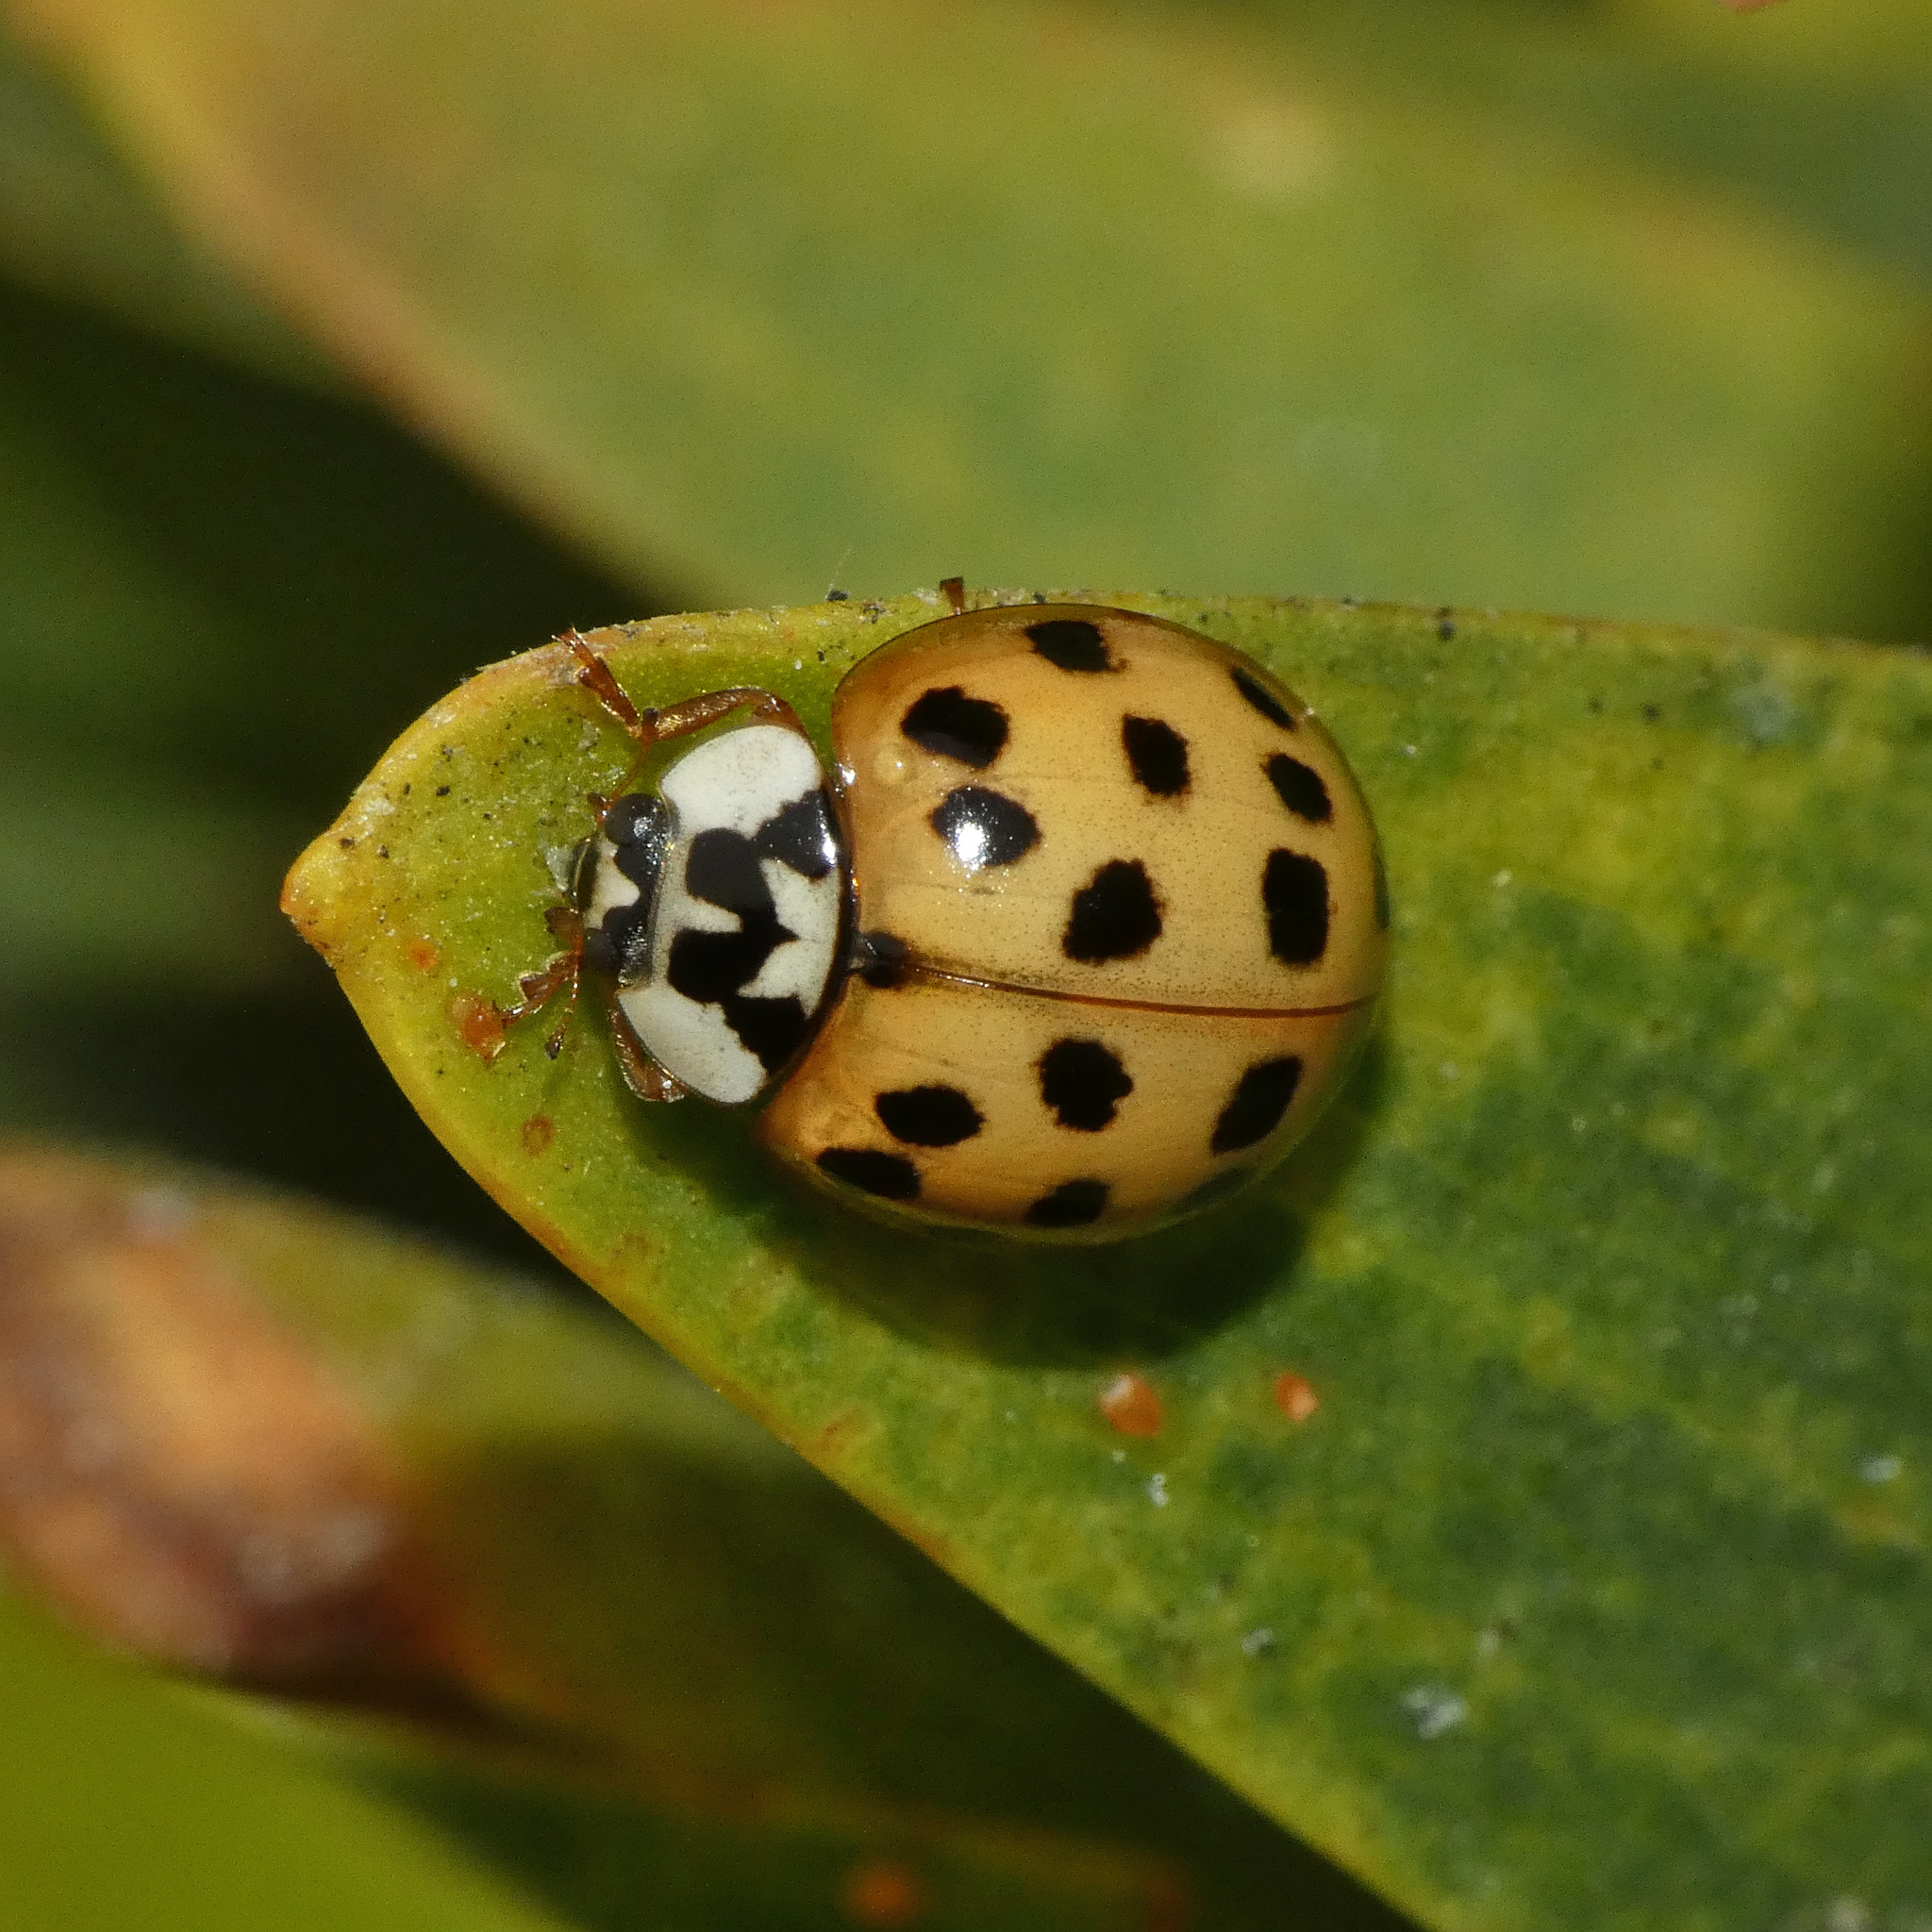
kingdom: Animalia
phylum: Arthropoda
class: Insecta
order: Coleoptera
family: Coccinellidae
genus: Harmonia
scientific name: Harmonia axyridis
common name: Harlequin ladybird
